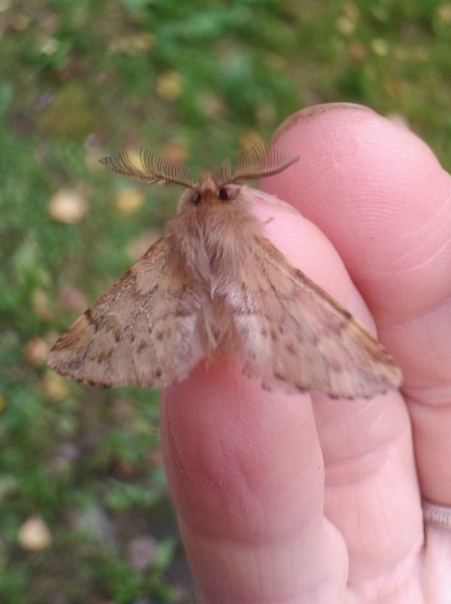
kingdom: Animalia
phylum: Arthropoda
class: Insecta
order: Lepidoptera
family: Notodontidae
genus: Ptilophora
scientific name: Ptilophora plumigera
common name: Plumed prominent
